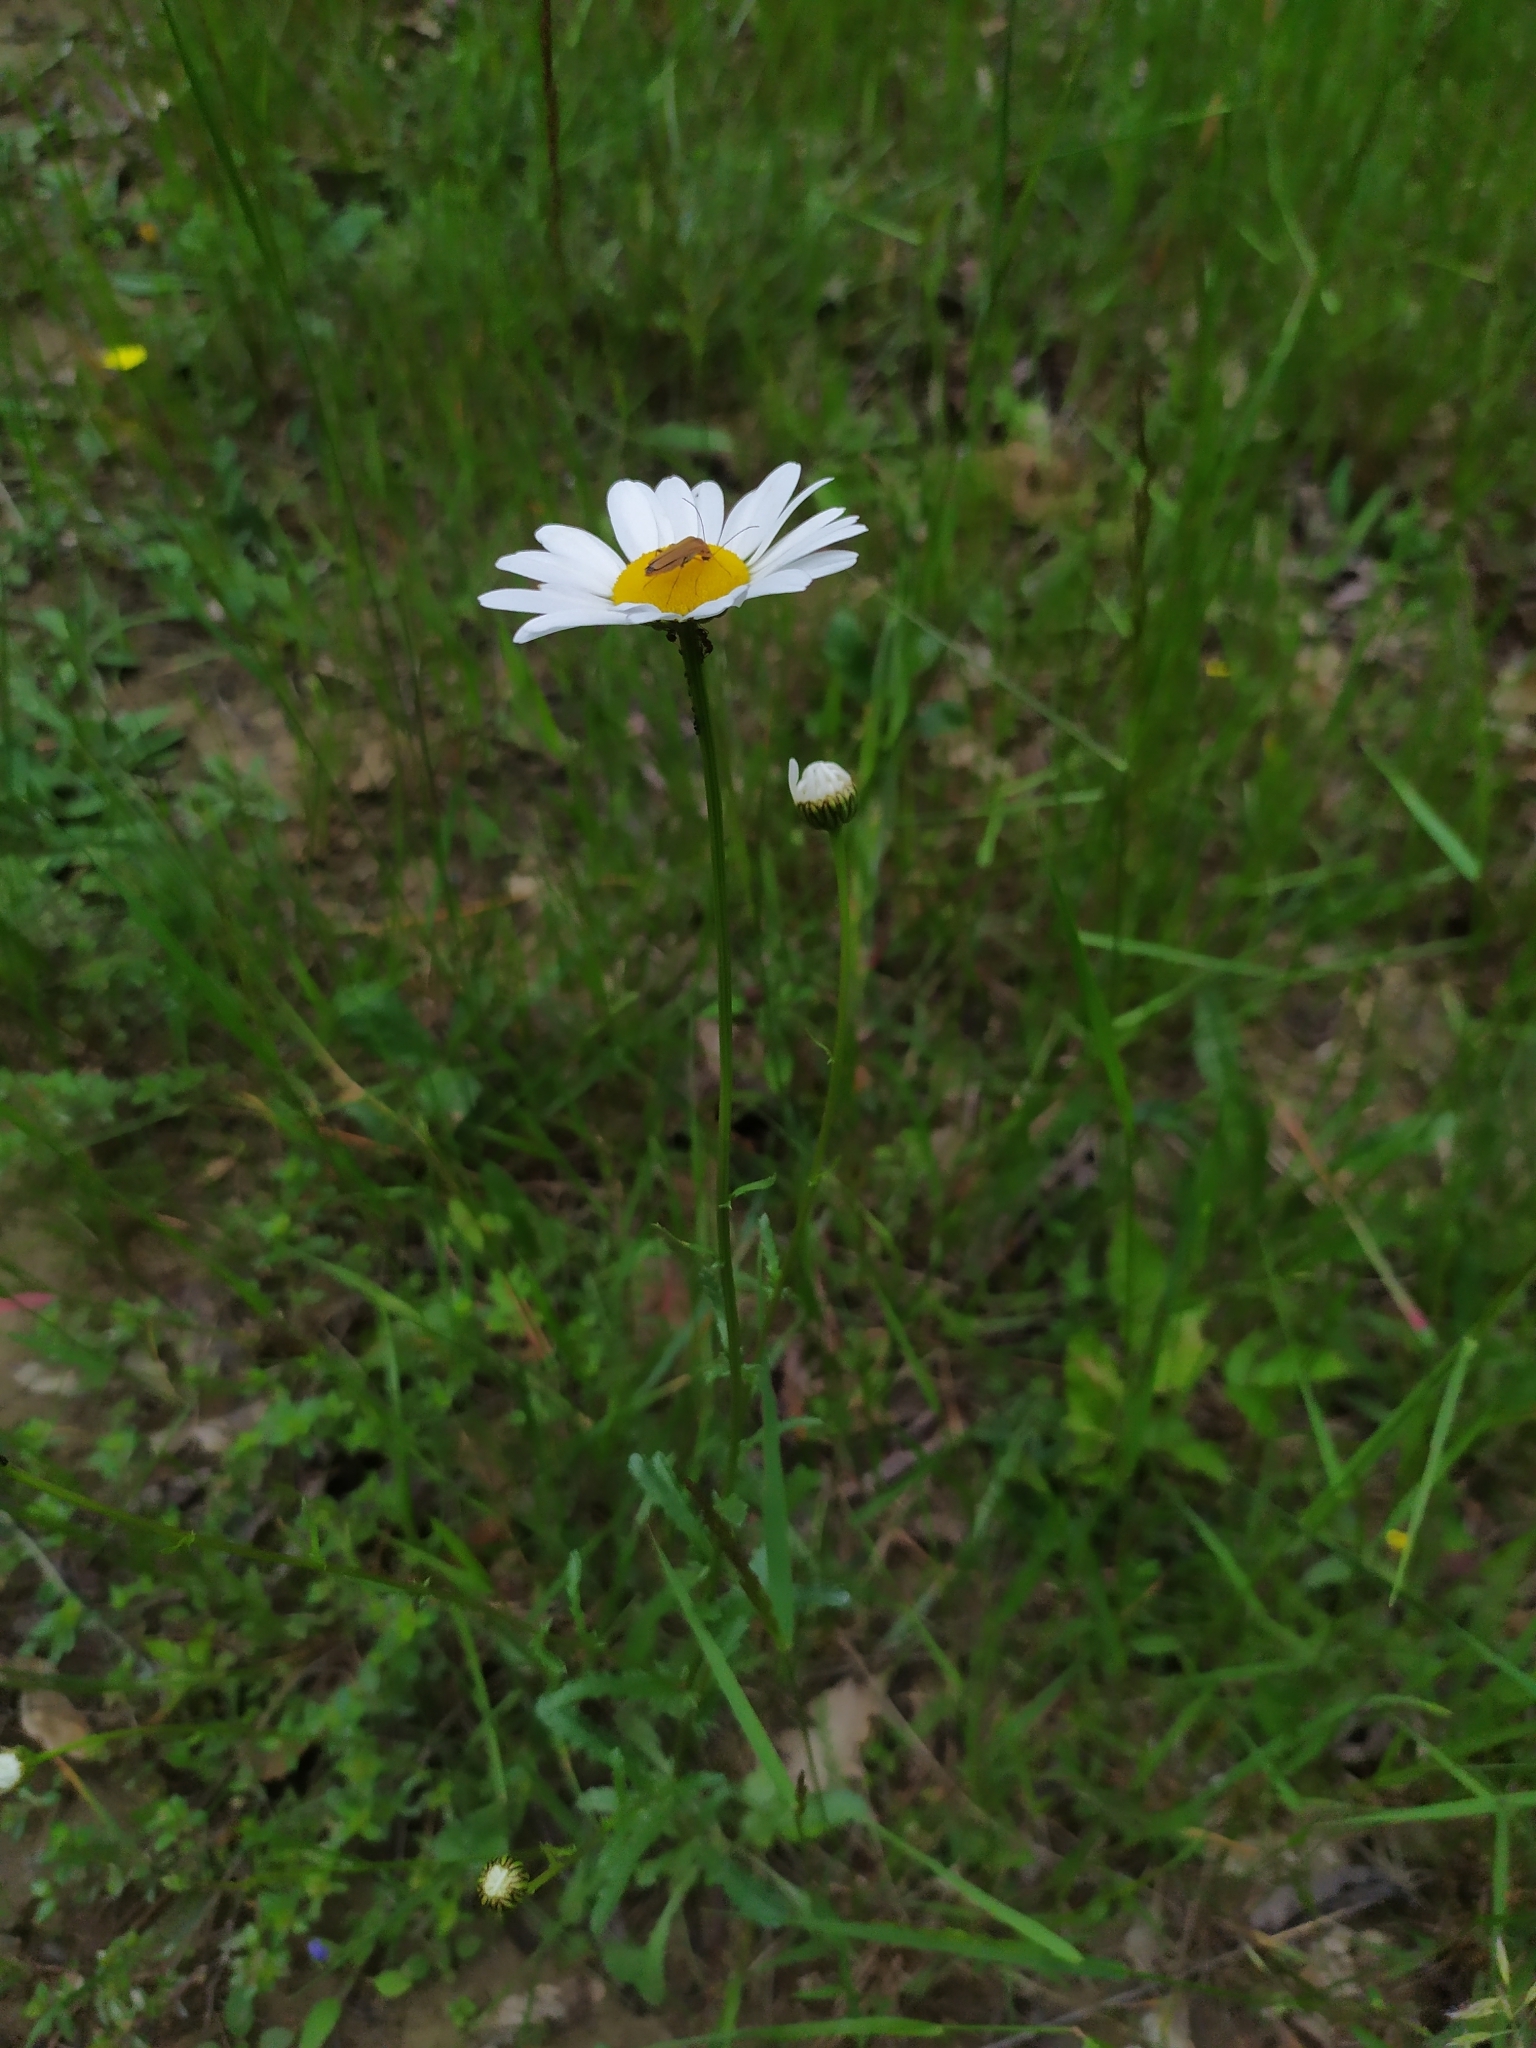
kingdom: Plantae
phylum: Tracheophyta
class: Magnoliopsida
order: Asterales
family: Asteraceae
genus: Leucanthemum
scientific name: Leucanthemum vulgare
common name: Oxeye daisy
